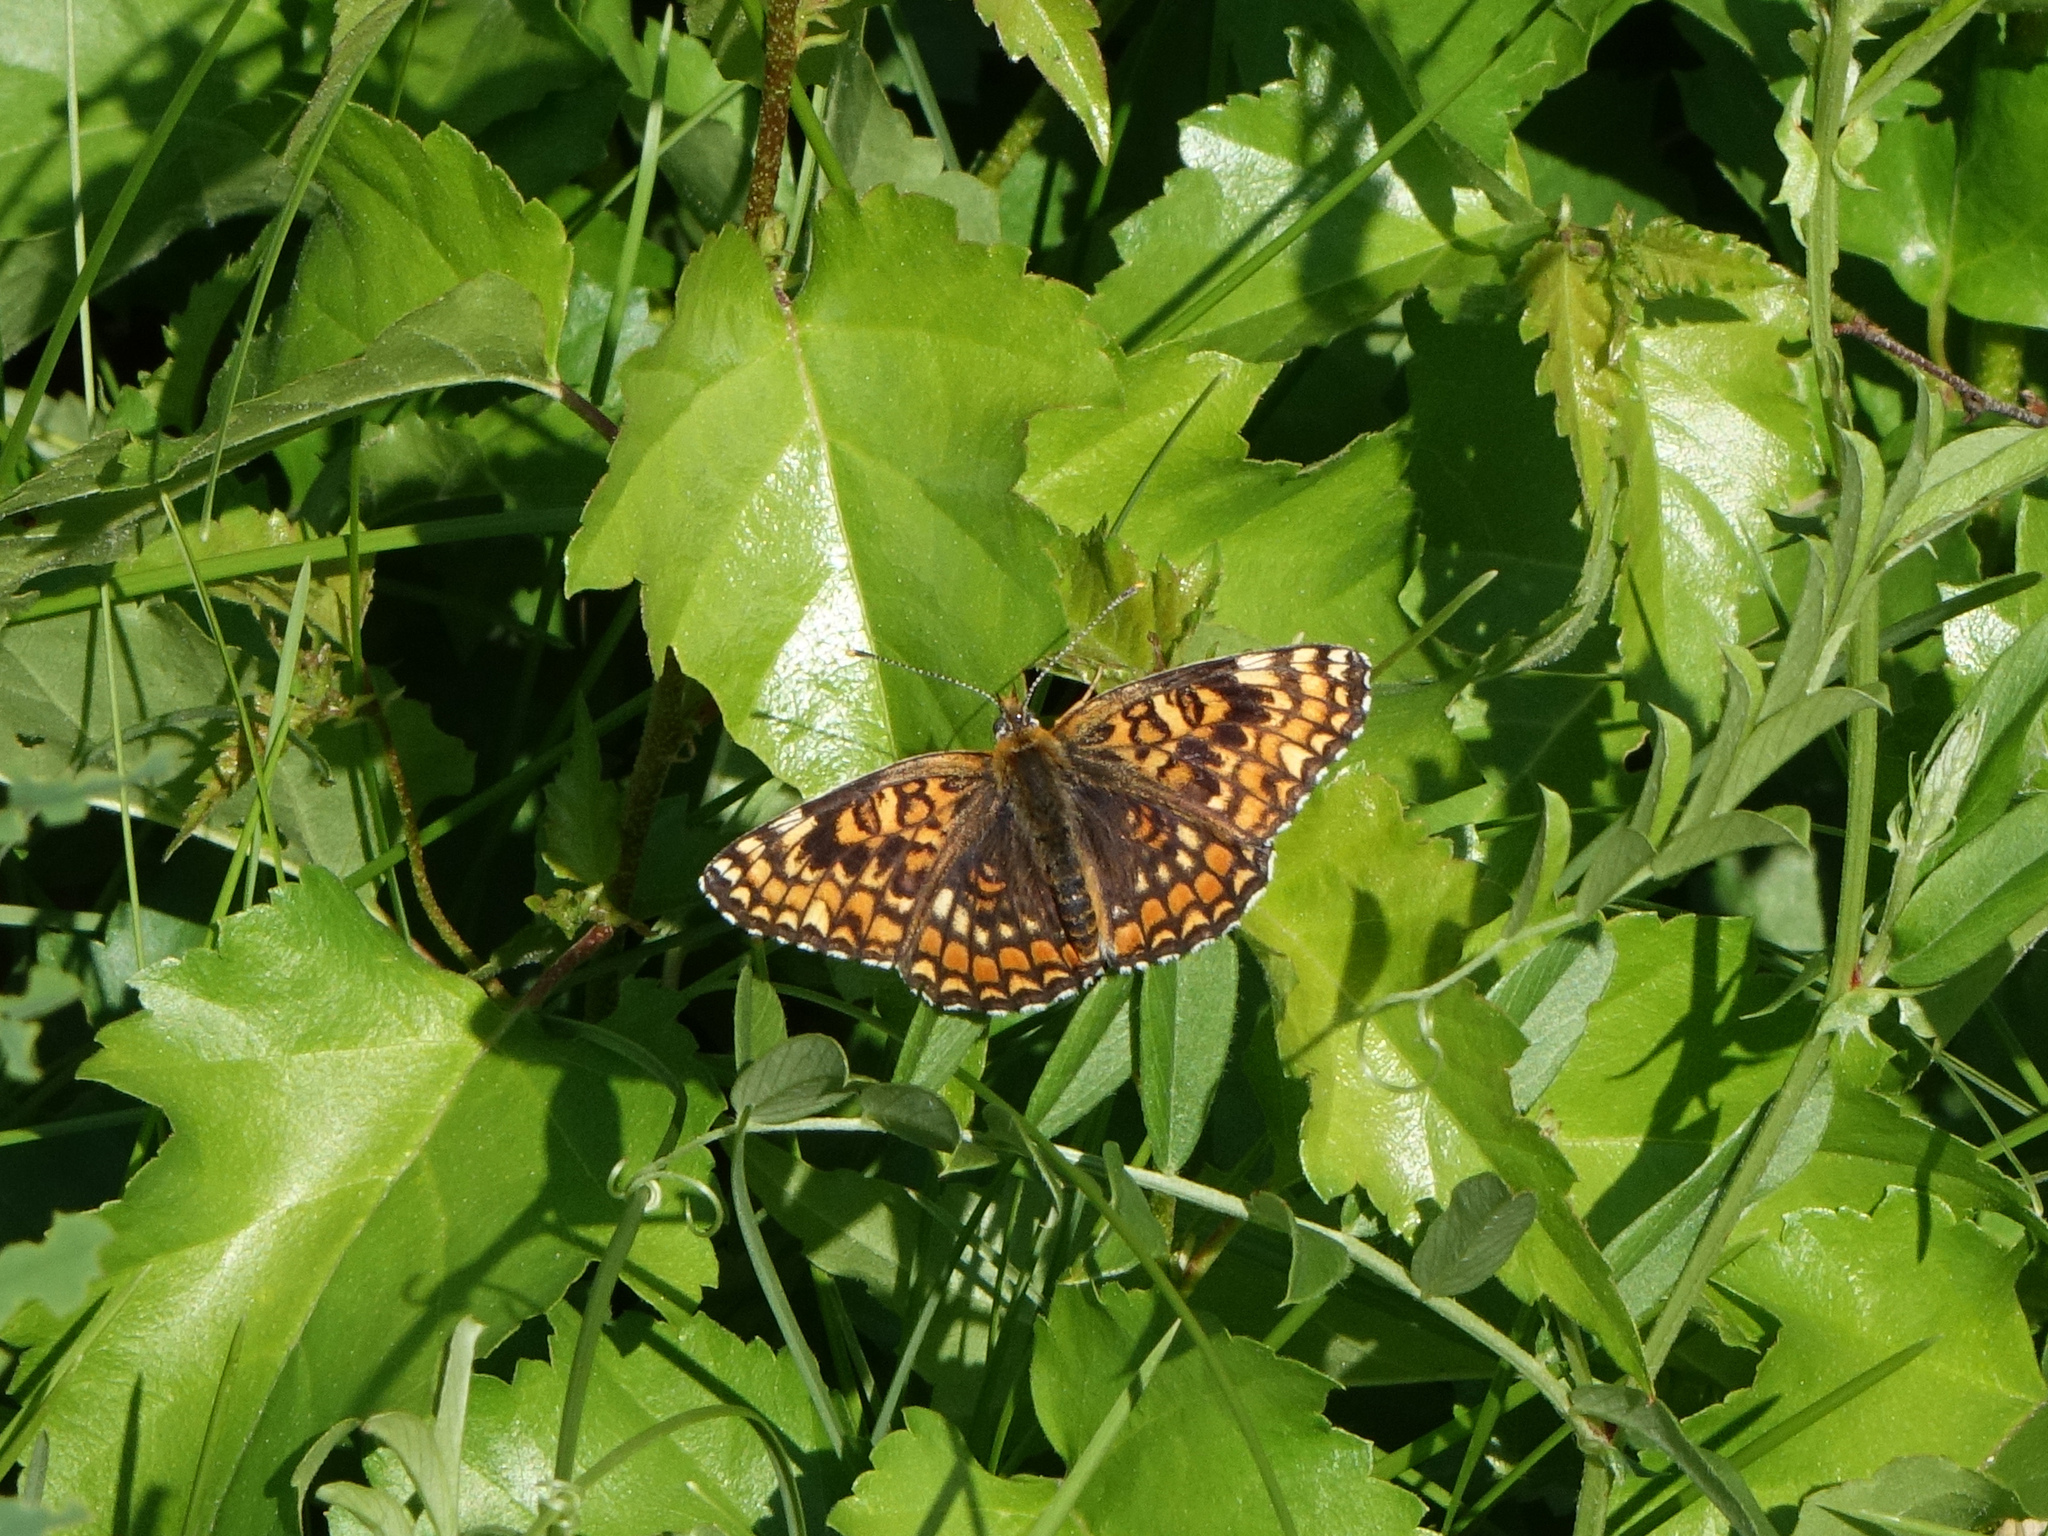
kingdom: Animalia
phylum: Arthropoda
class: Insecta
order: Lepidoptera
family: Nymphalidae
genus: Melitaea
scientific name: Melitaea phoebe
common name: Knapweed fritillary
